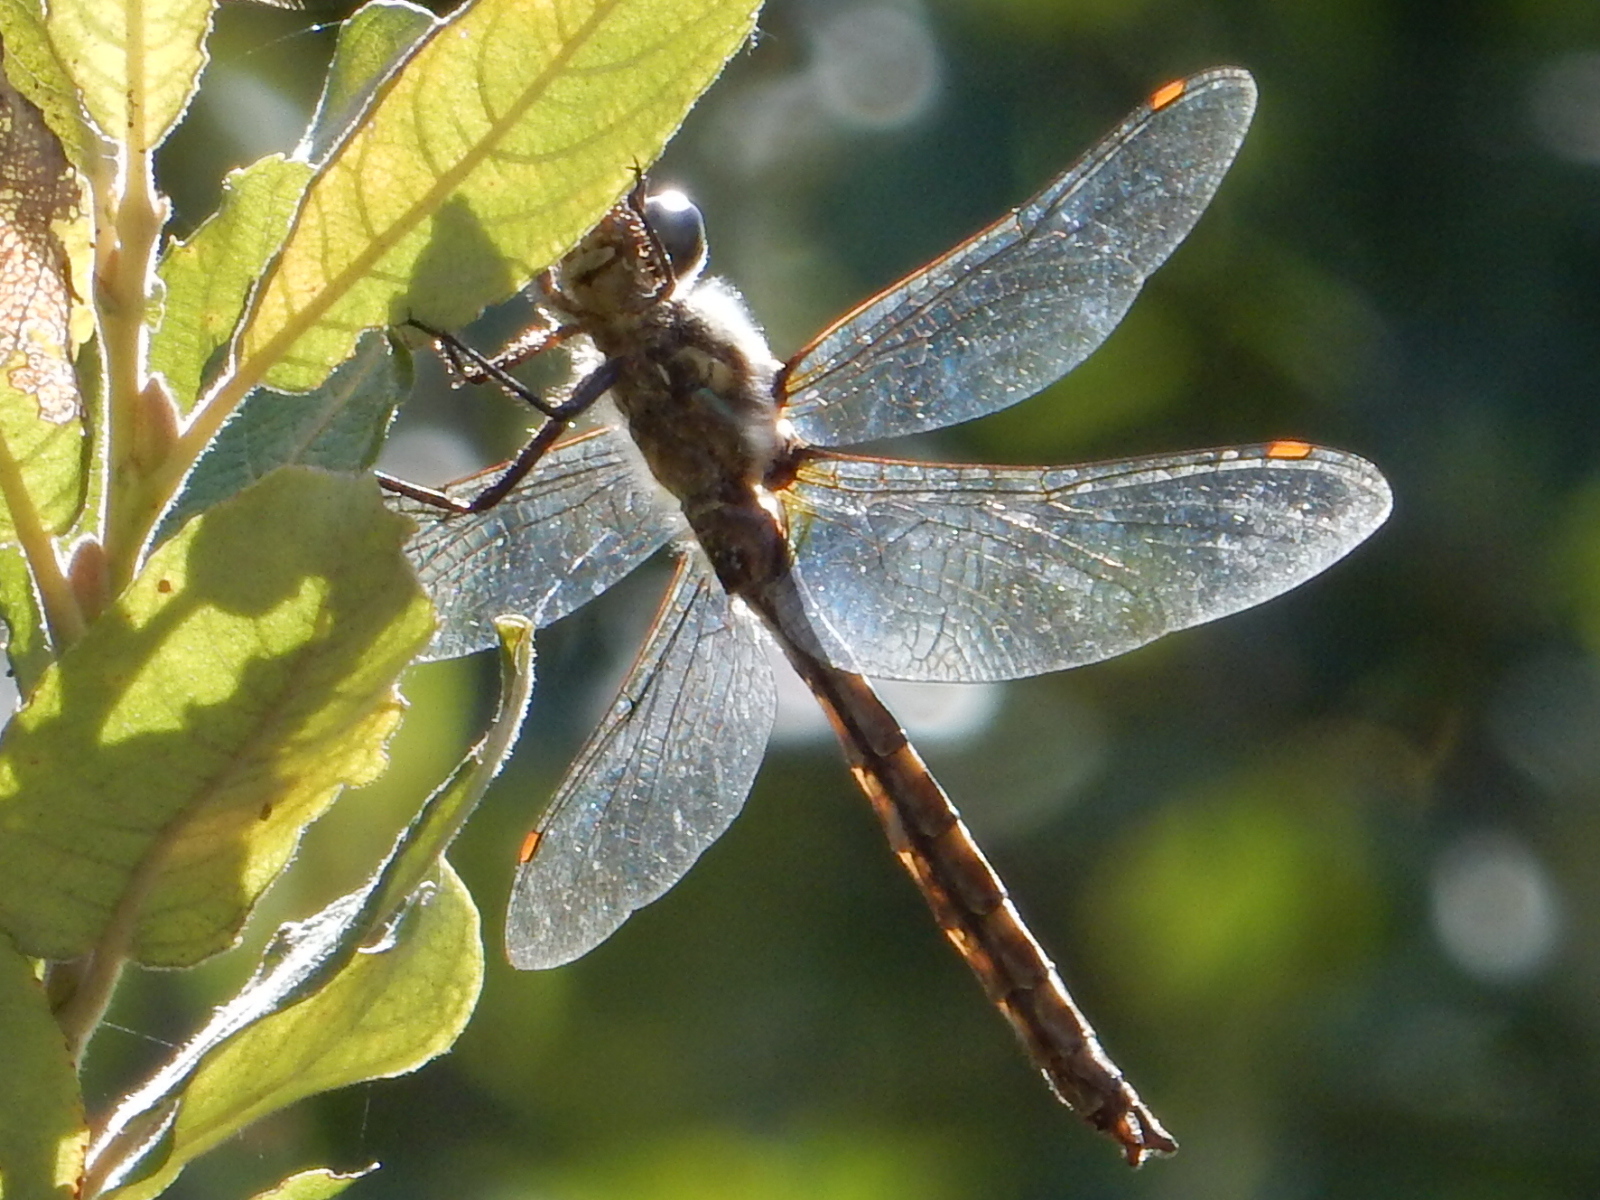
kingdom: Animalia
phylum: Arthropoda
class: Insecta
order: Odonata
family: Corduliidae
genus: Procordulia
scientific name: Procordulia grayi
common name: Yellow spotted dragonfly
